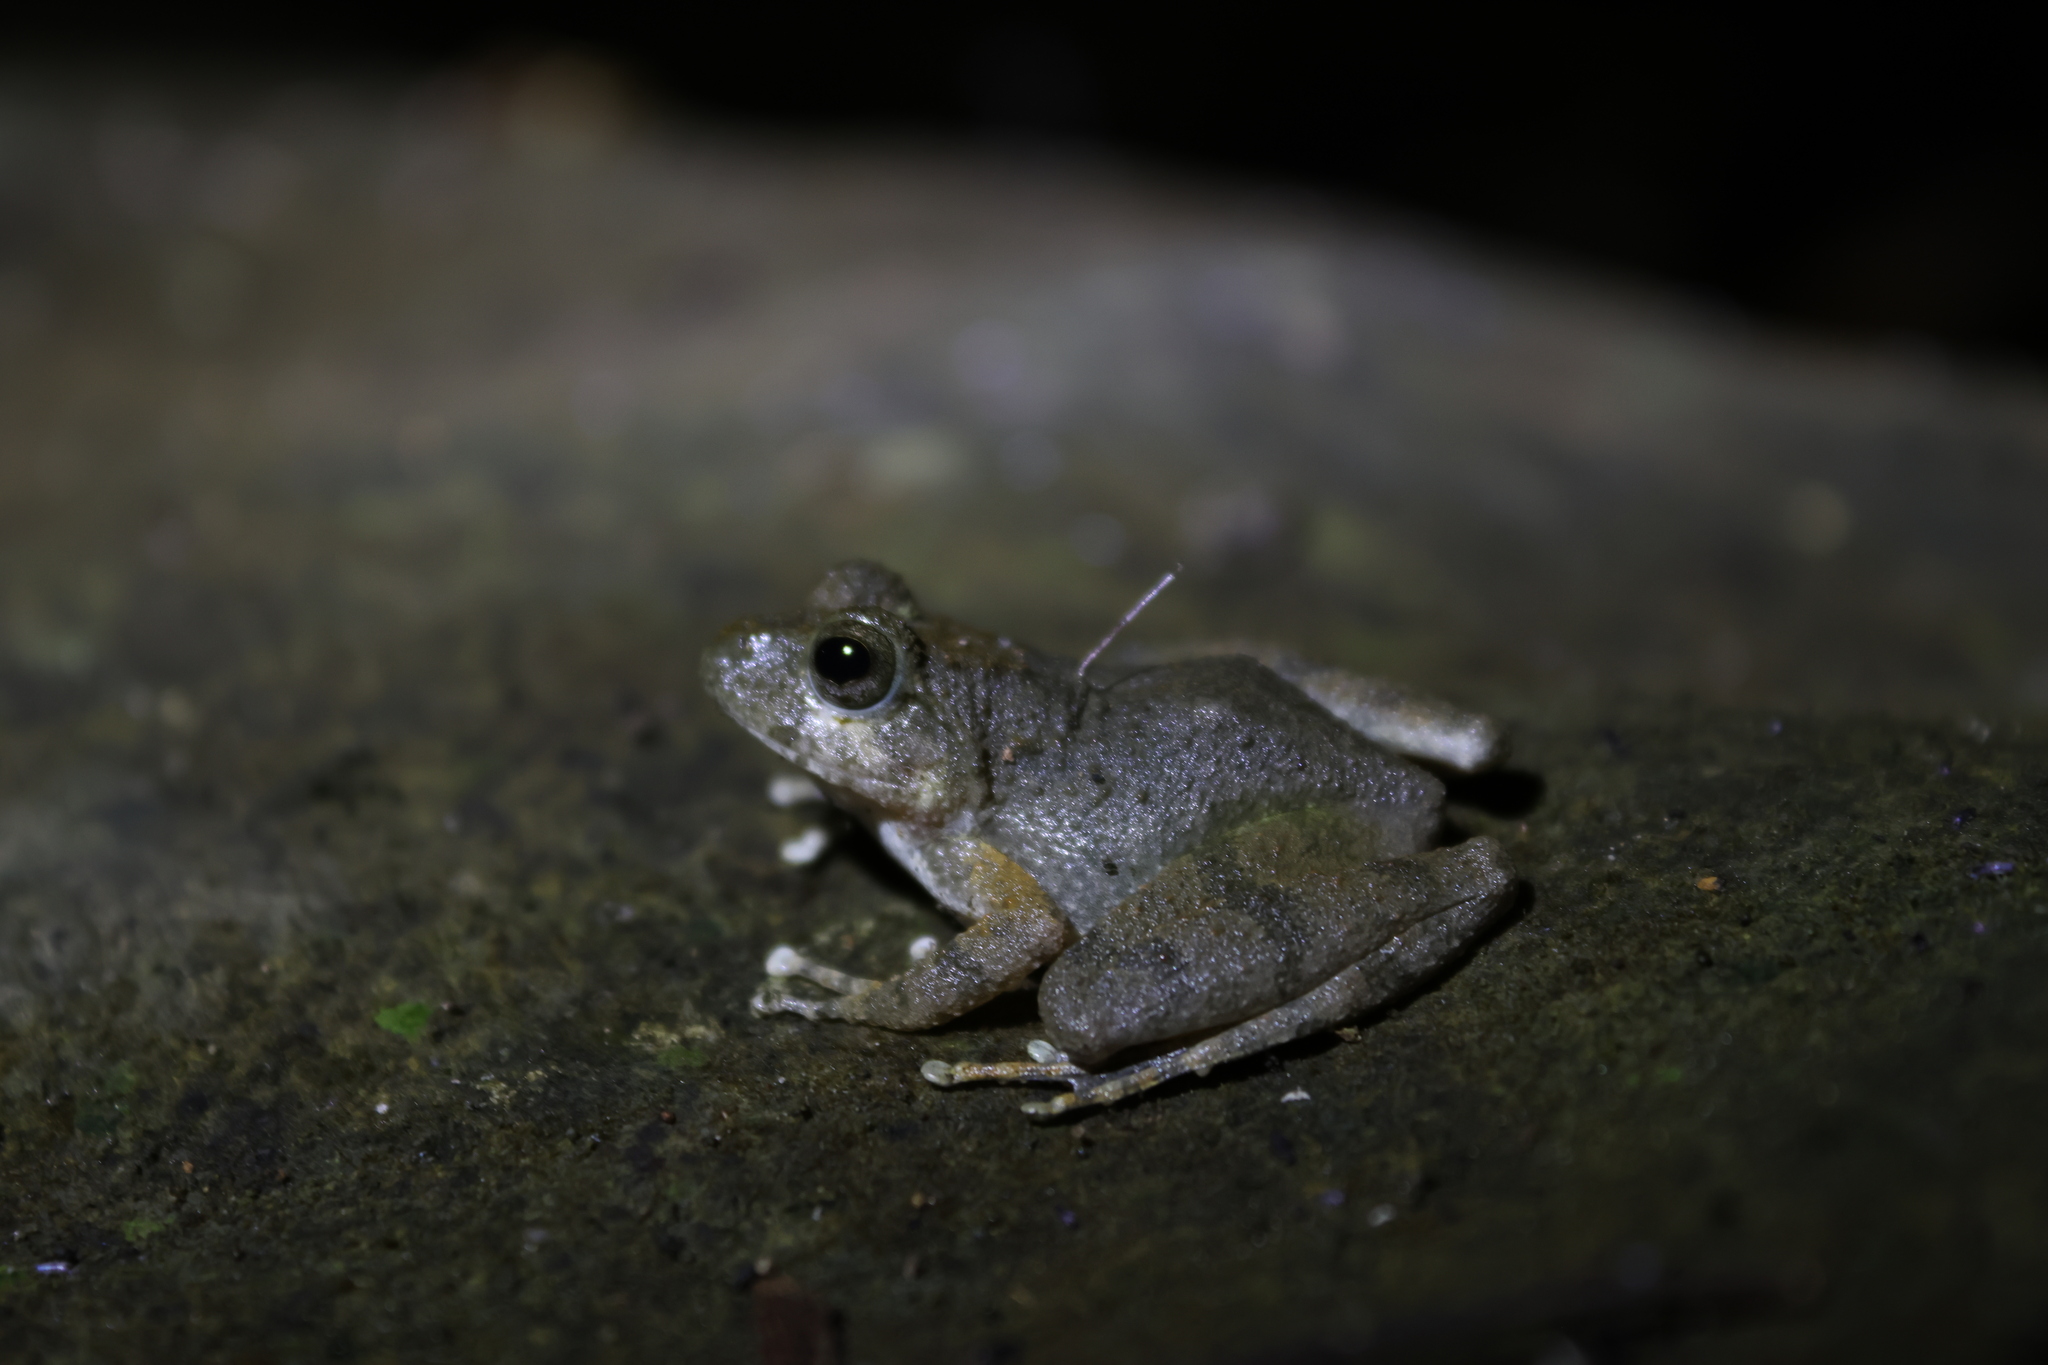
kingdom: Animalia
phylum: Chordata
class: Amphibia
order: Anura
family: Rhacophoridae
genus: Buergeria
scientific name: Buergeria otai
